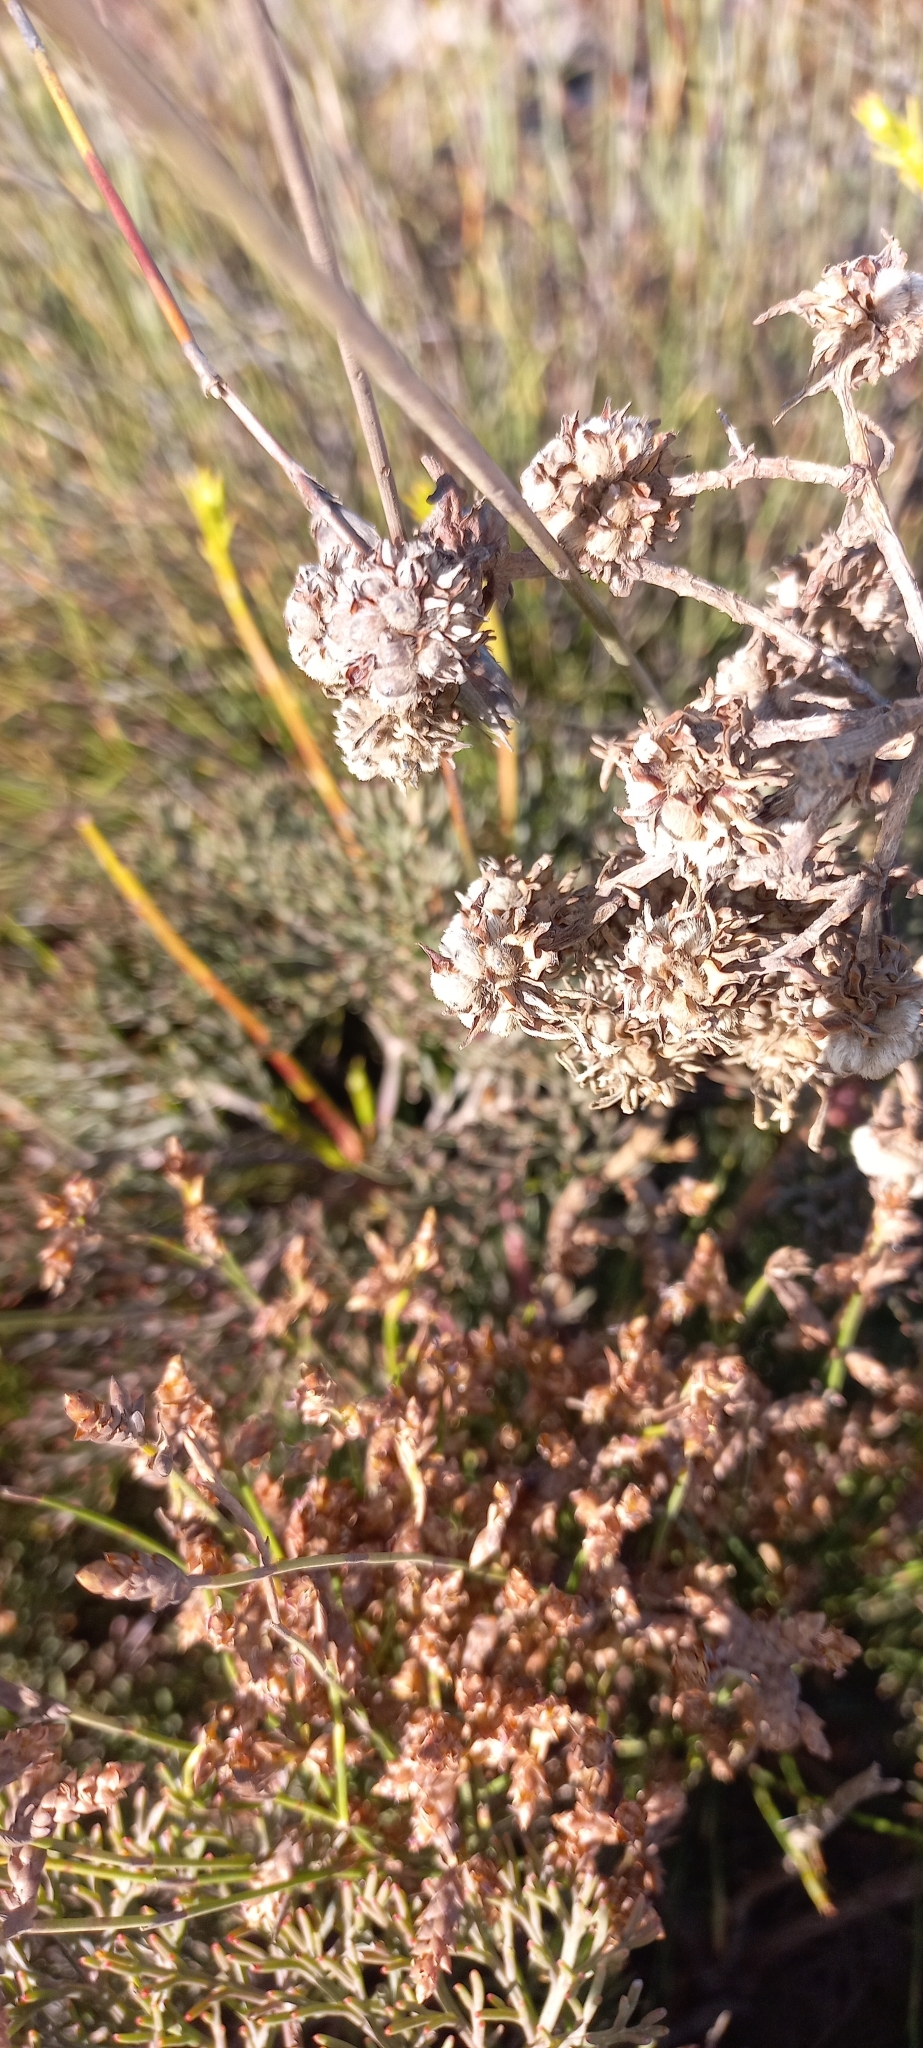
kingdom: Plantae
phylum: Tracheophyta
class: Magnoliopsida
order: Proteales
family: Proteaceae
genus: Serruria
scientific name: Serruria elongata
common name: Long-stalk spiderhead
